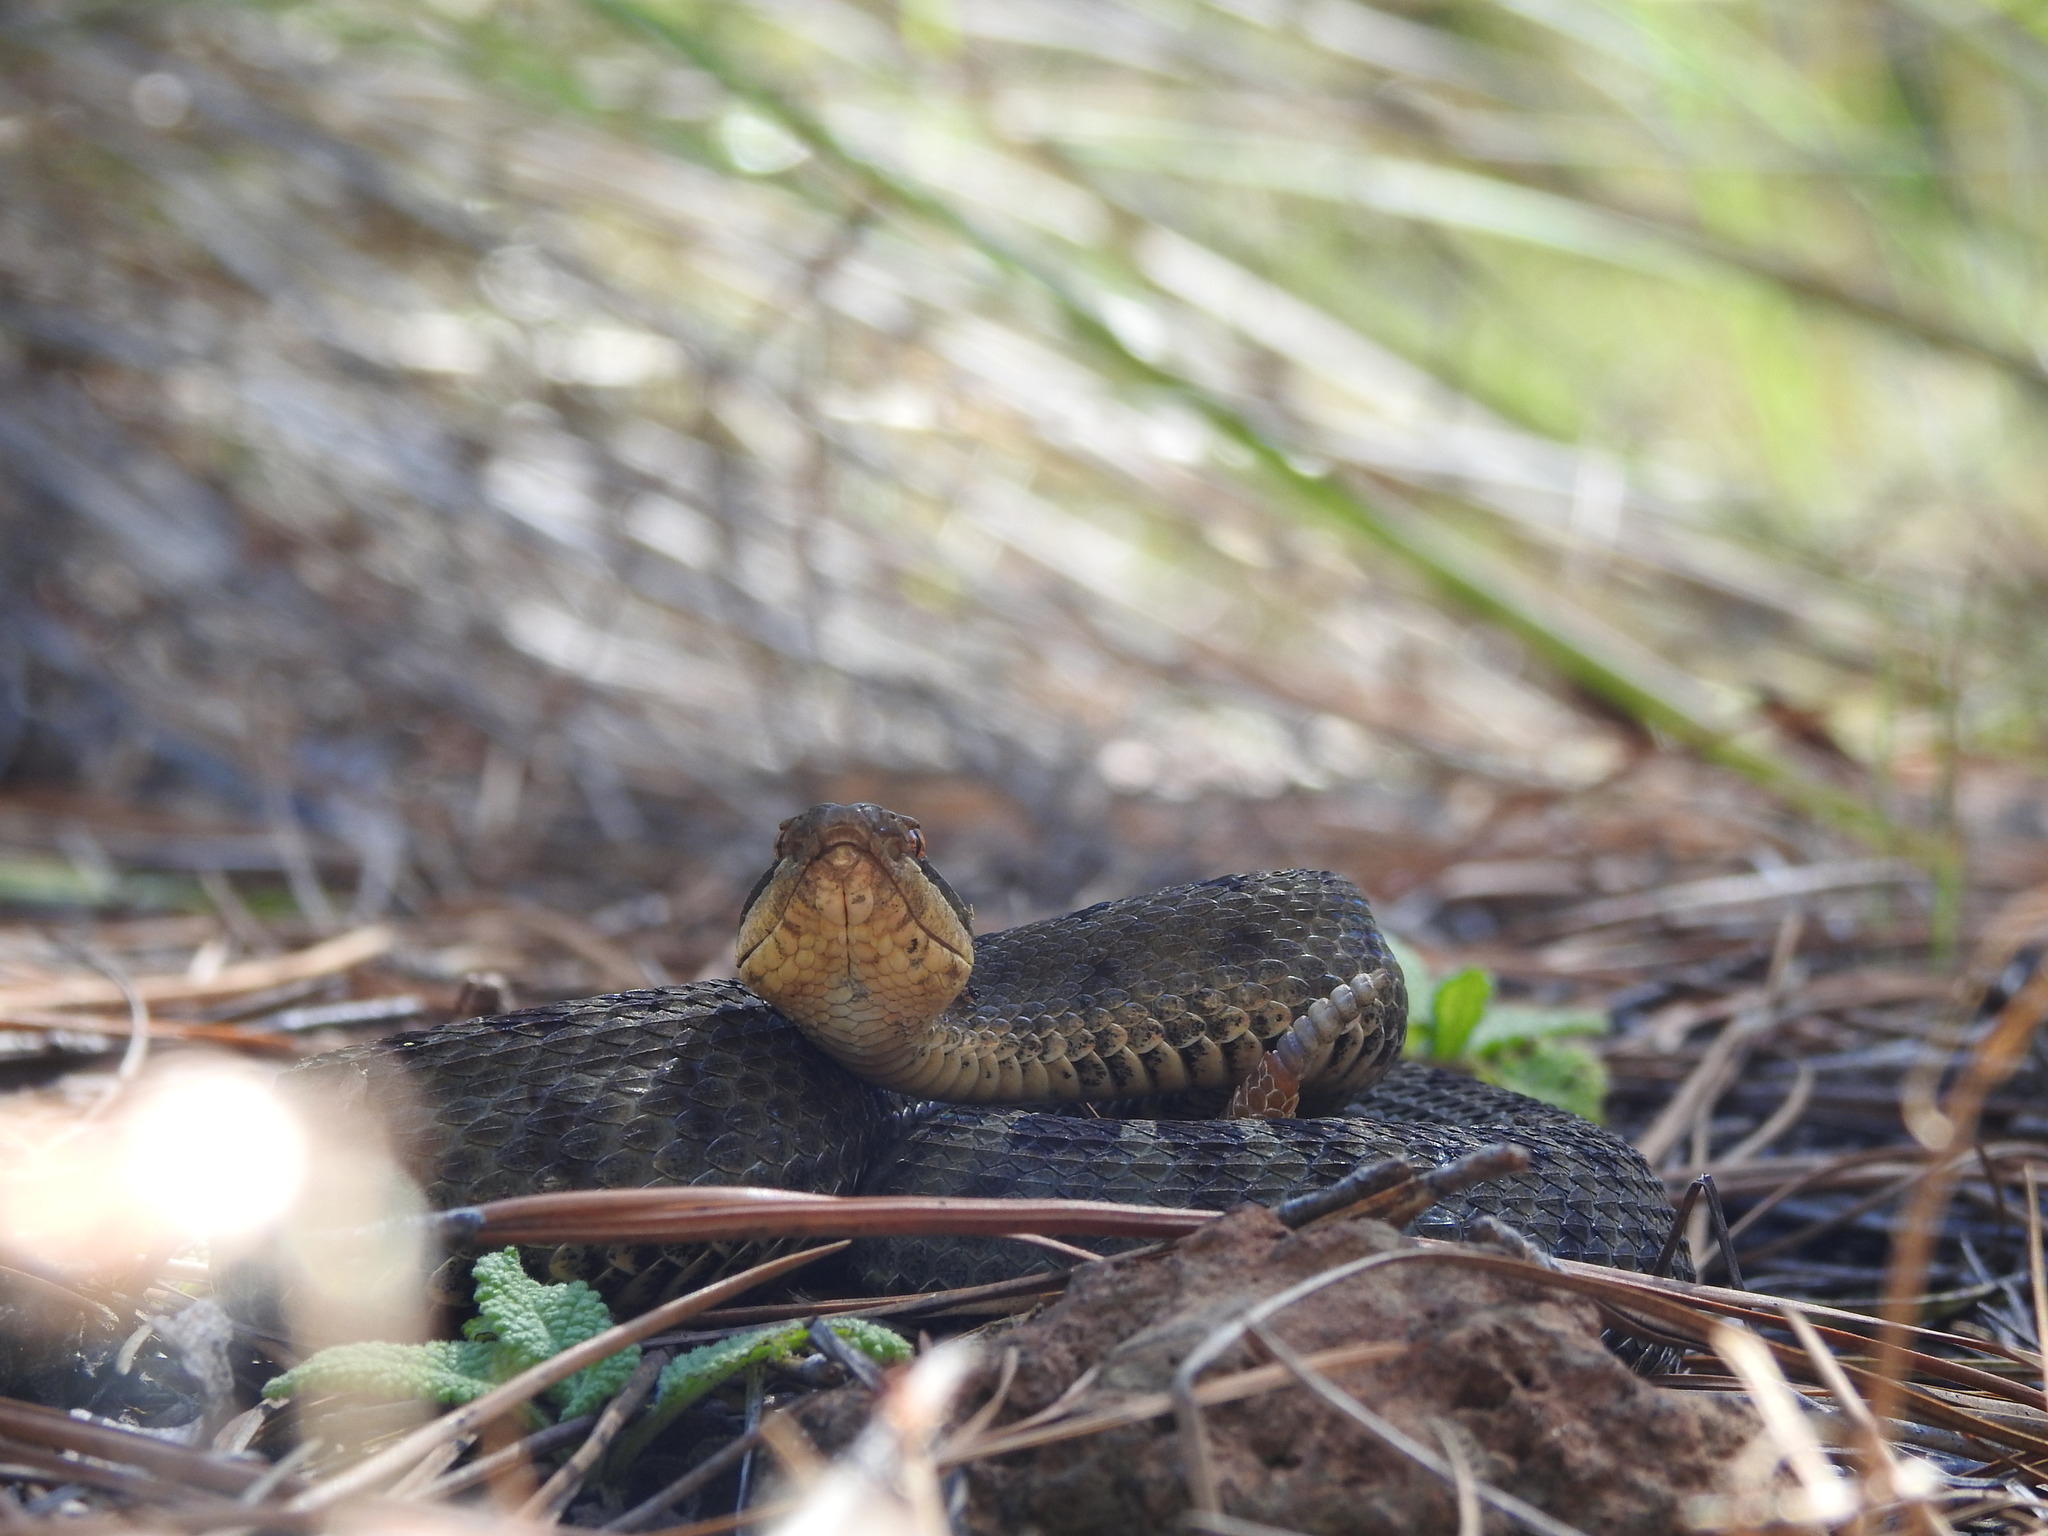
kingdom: Animalia
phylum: Chordata
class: Squamata
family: Viperidae
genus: Crotalus
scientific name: Crotalus triseriatus
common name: Central plateau dusky rattlesnake
